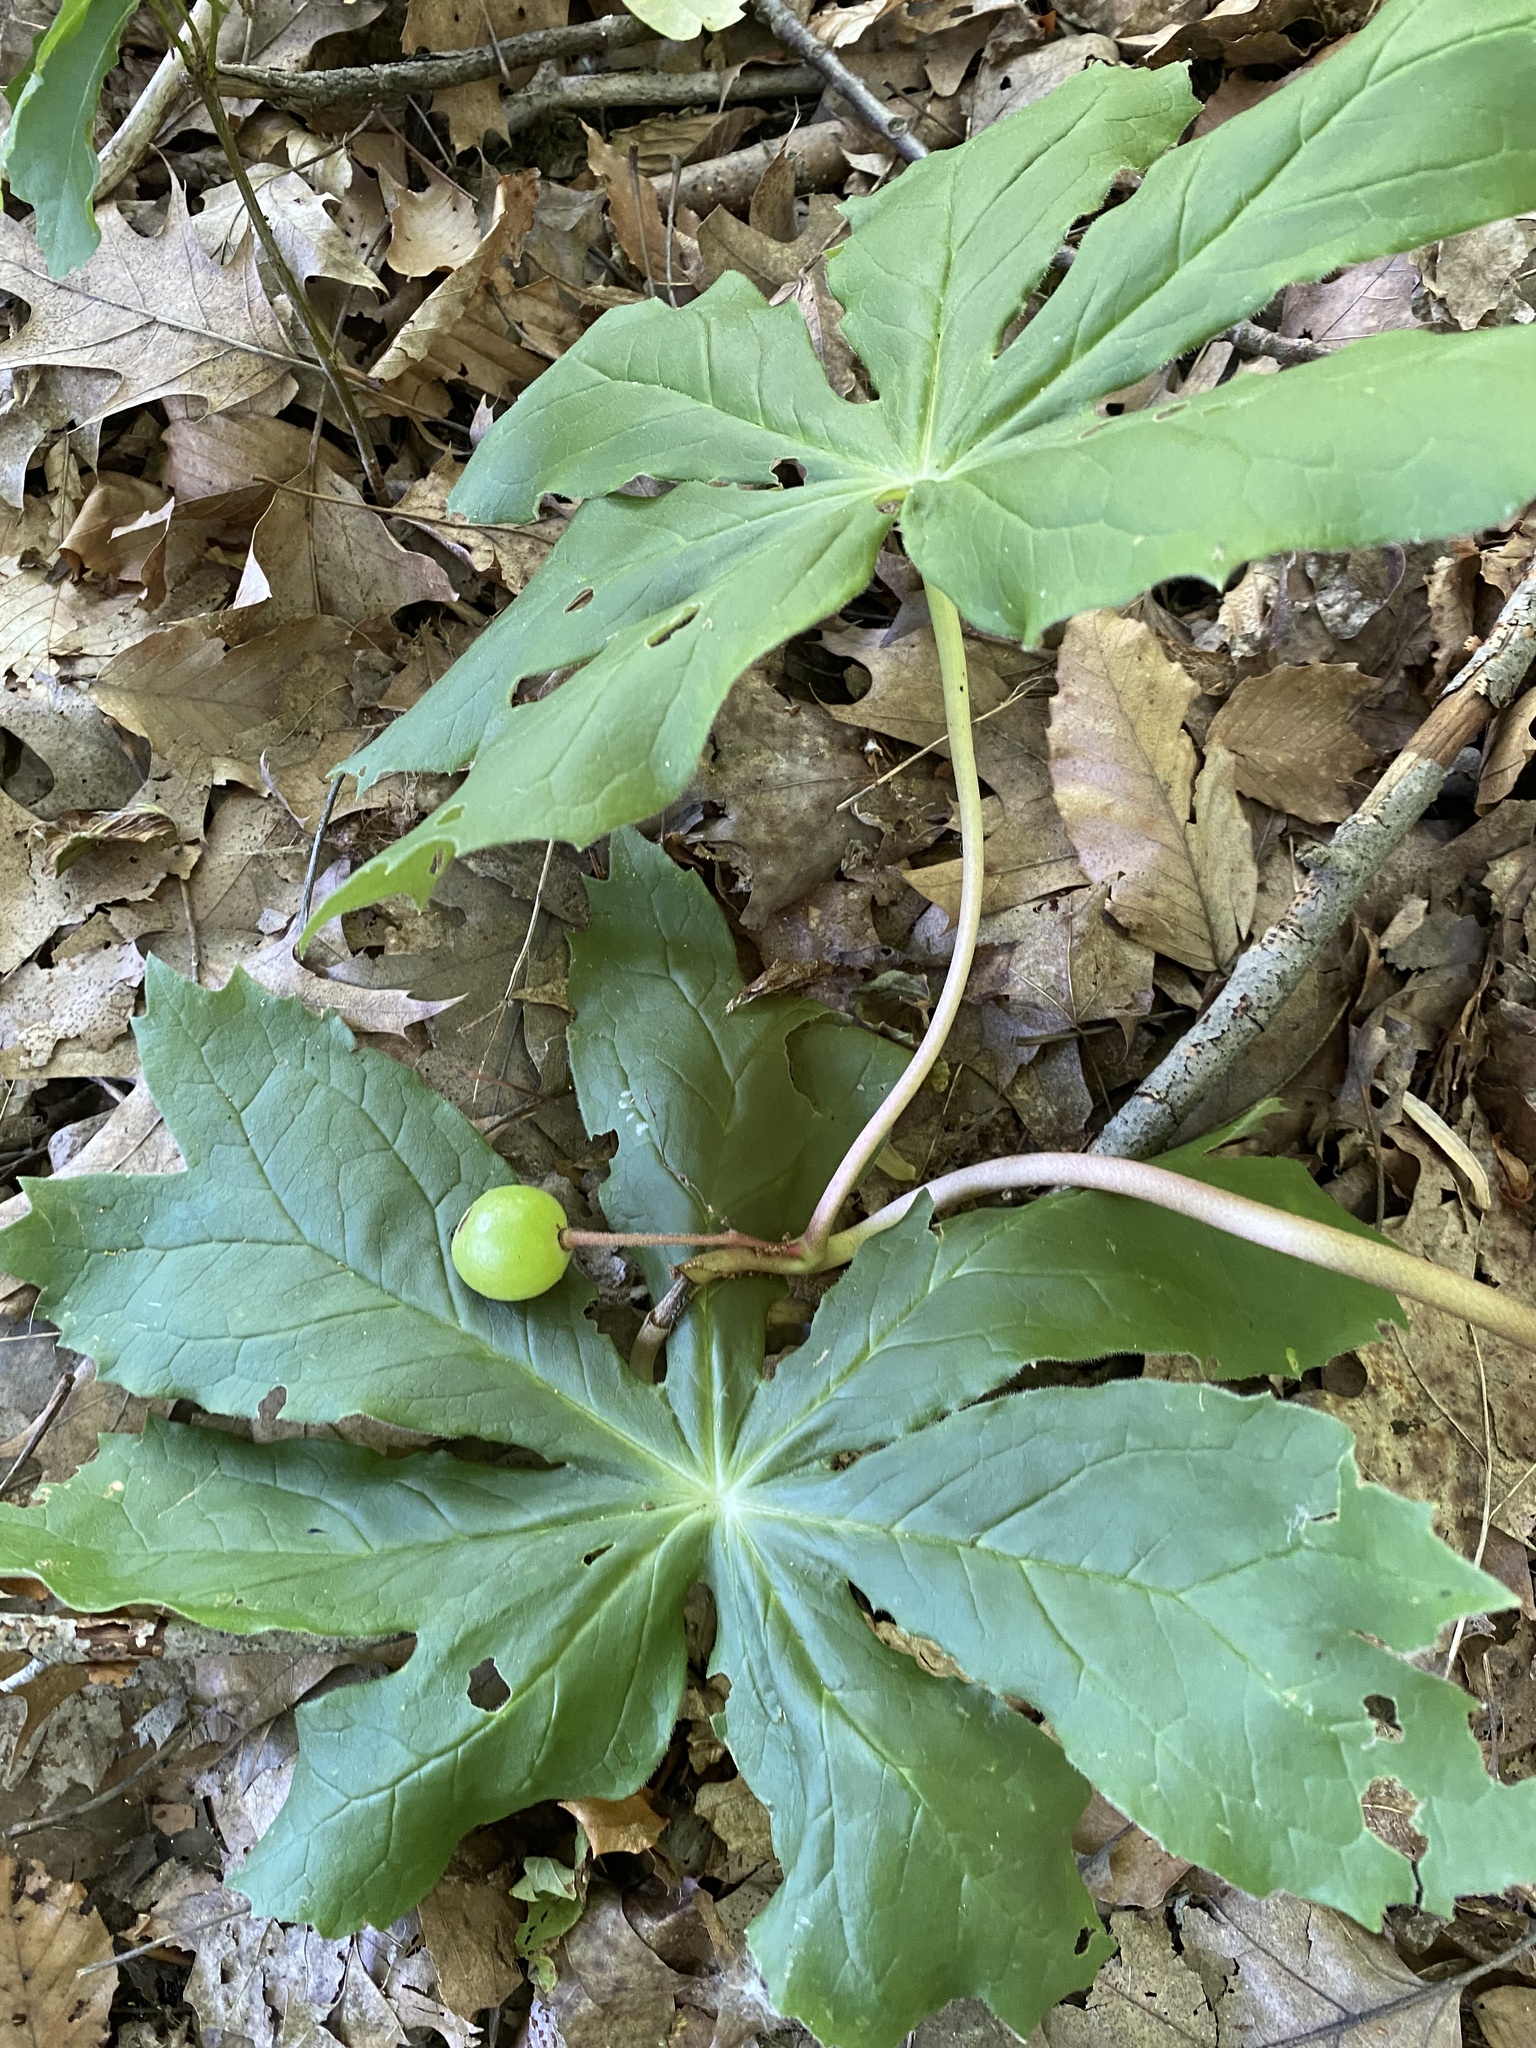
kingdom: Plantae
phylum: Tracheophyta
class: Magnoliopsida
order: Ranunculales
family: Berberidaceae
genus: Podophyllum
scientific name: Podophyllum peltatum
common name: Wild mandrake
